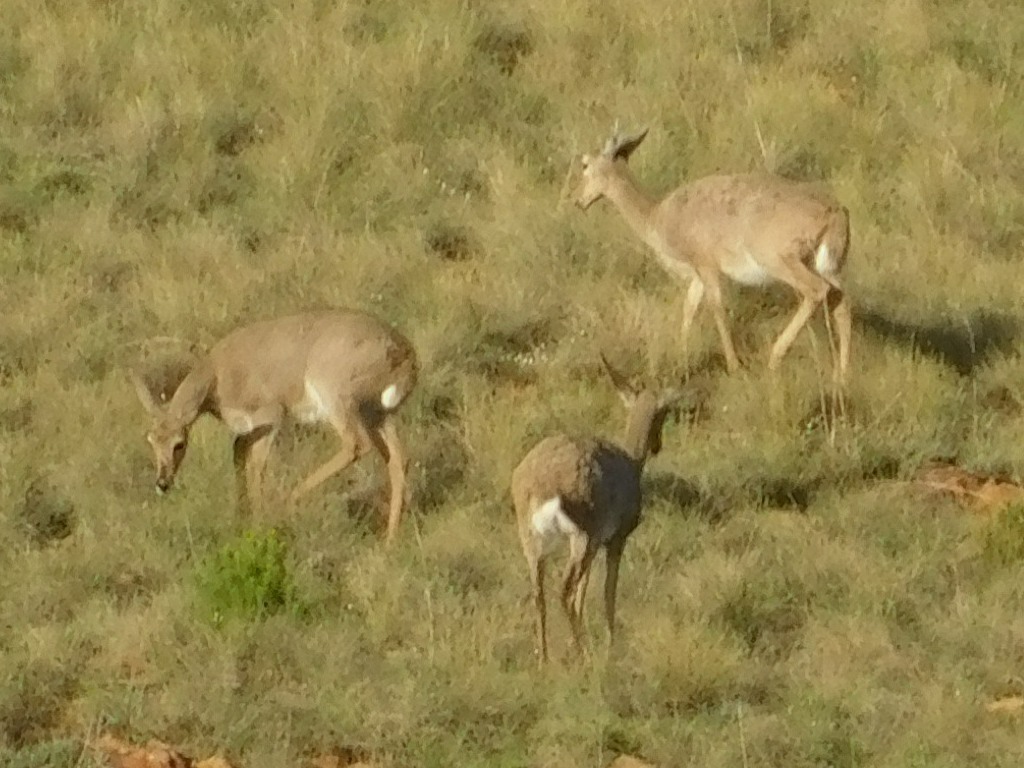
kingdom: Animalia
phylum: Chordata
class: Mammalia
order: Artiodactyla
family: Bovidae
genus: Pelea
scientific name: Pelea capreolus
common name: Common rhebok
